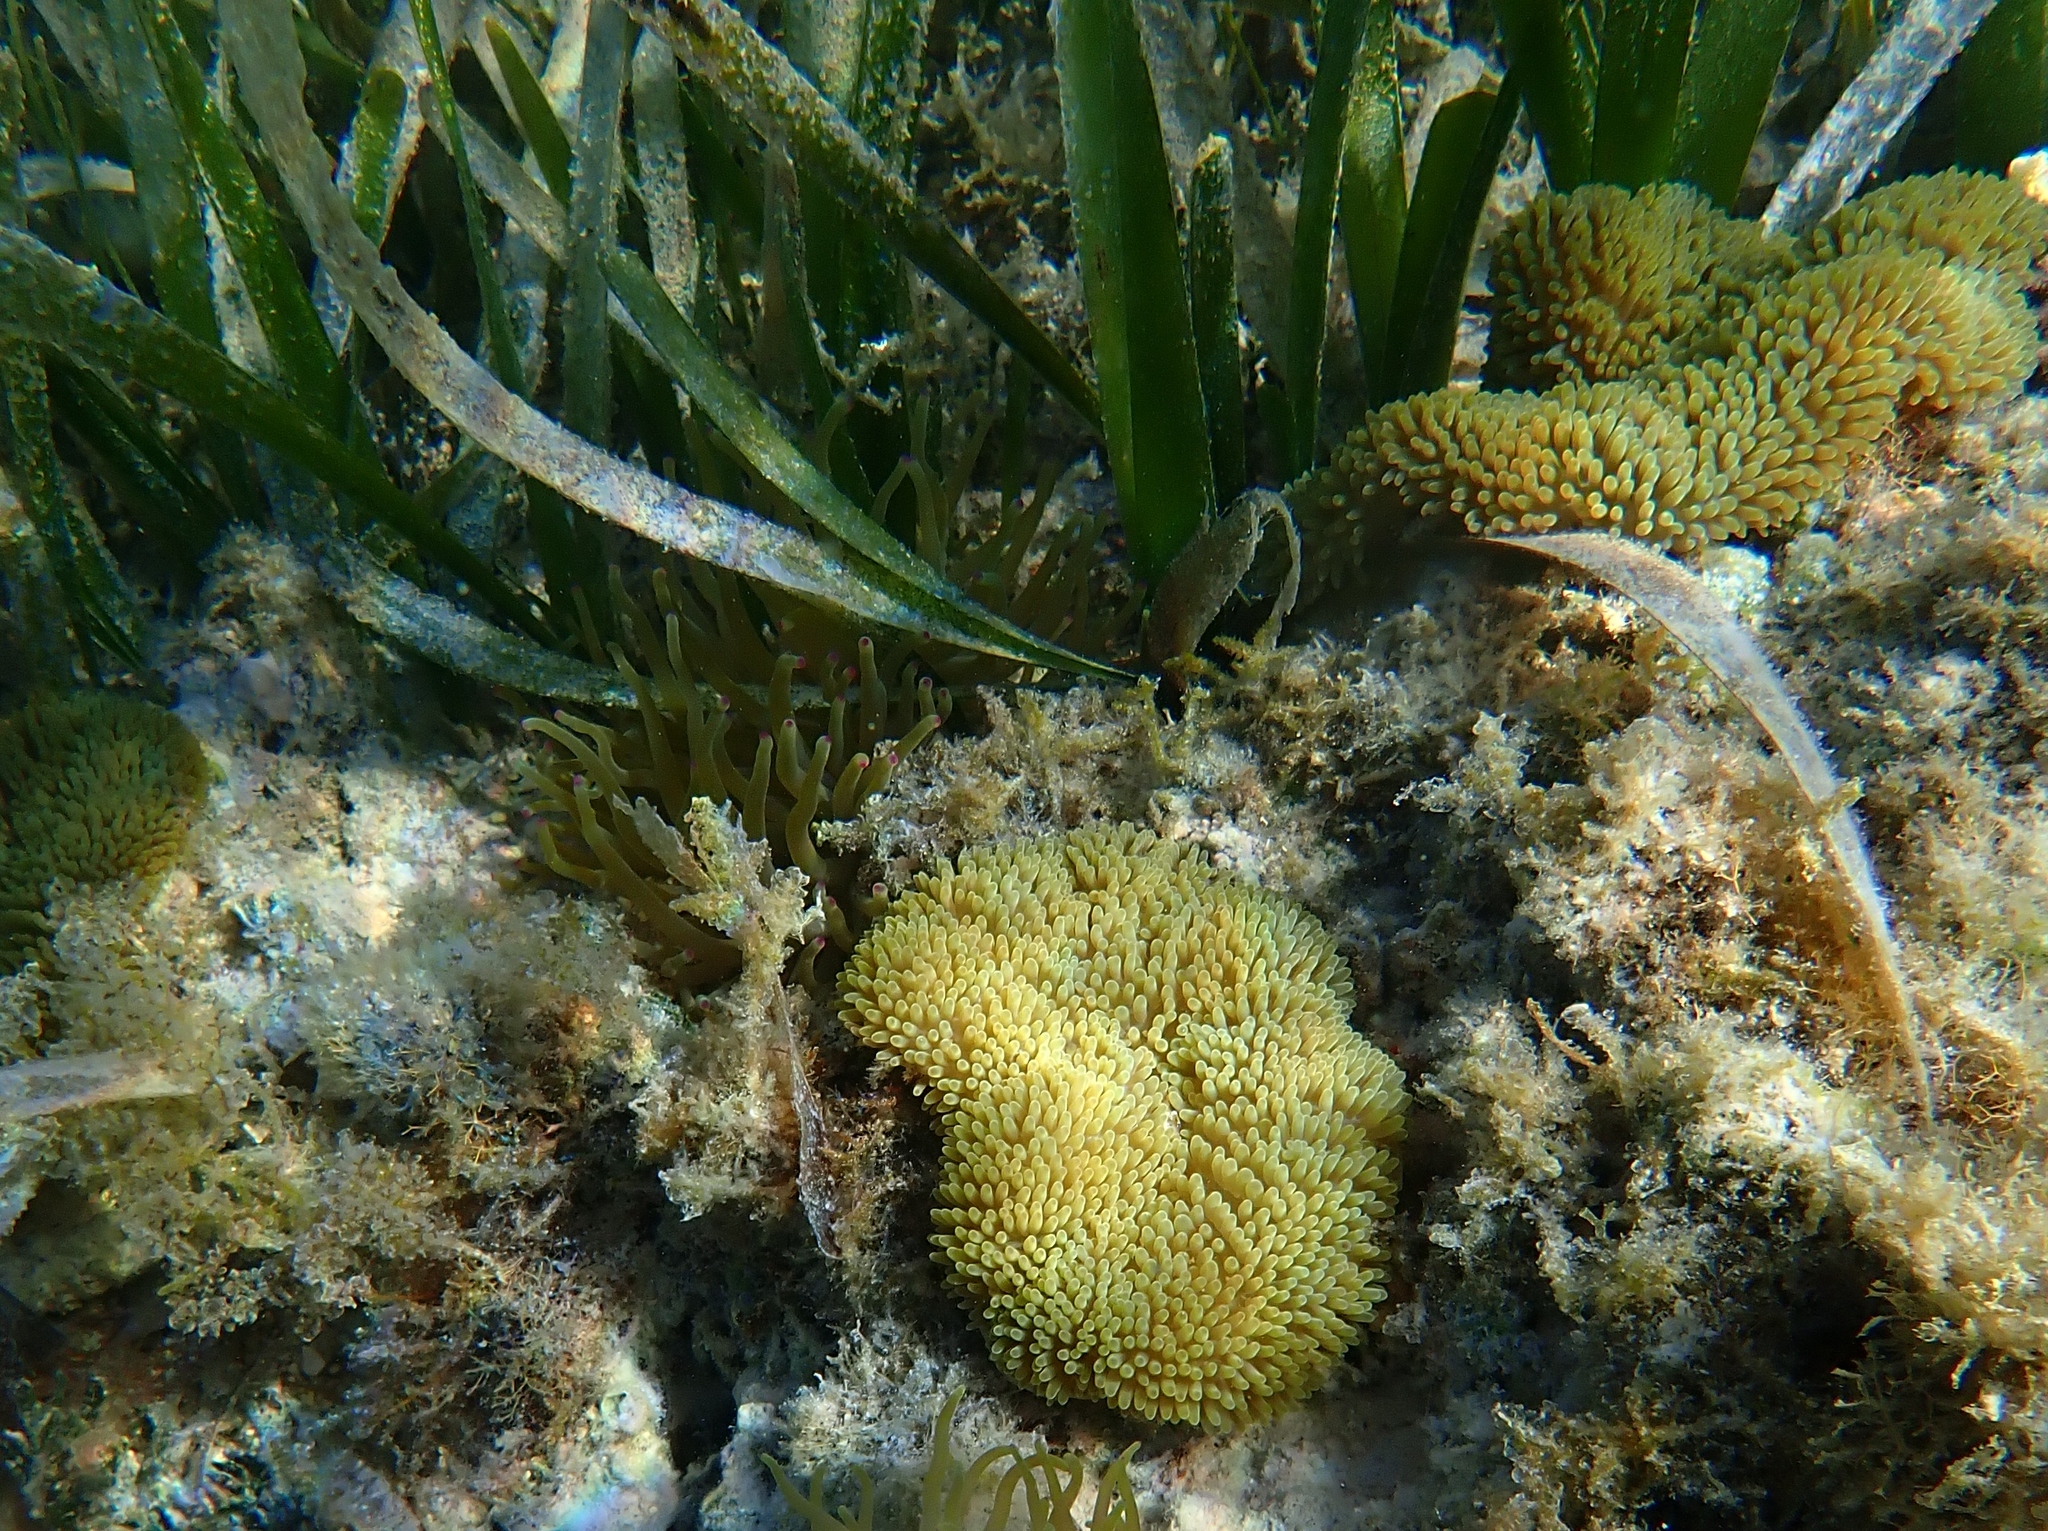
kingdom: Animalia
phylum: Cnidaria
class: Anthozoa
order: Actiniaria
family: Stichodactylidae
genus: Stichodactyla
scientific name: Stichodactyla helianthus
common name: Sun anemone
